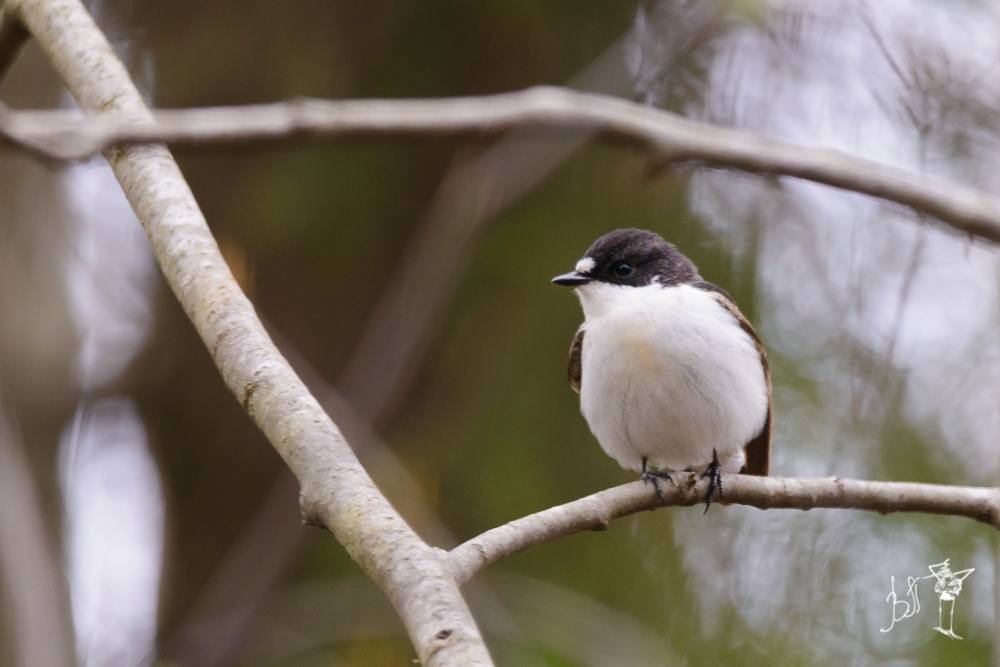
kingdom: Animalia
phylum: Chordata
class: Aves
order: Passeriformes
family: Muscicapidae
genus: Ficedula
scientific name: Ficedula hypoleuca
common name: European pied flycatcher
